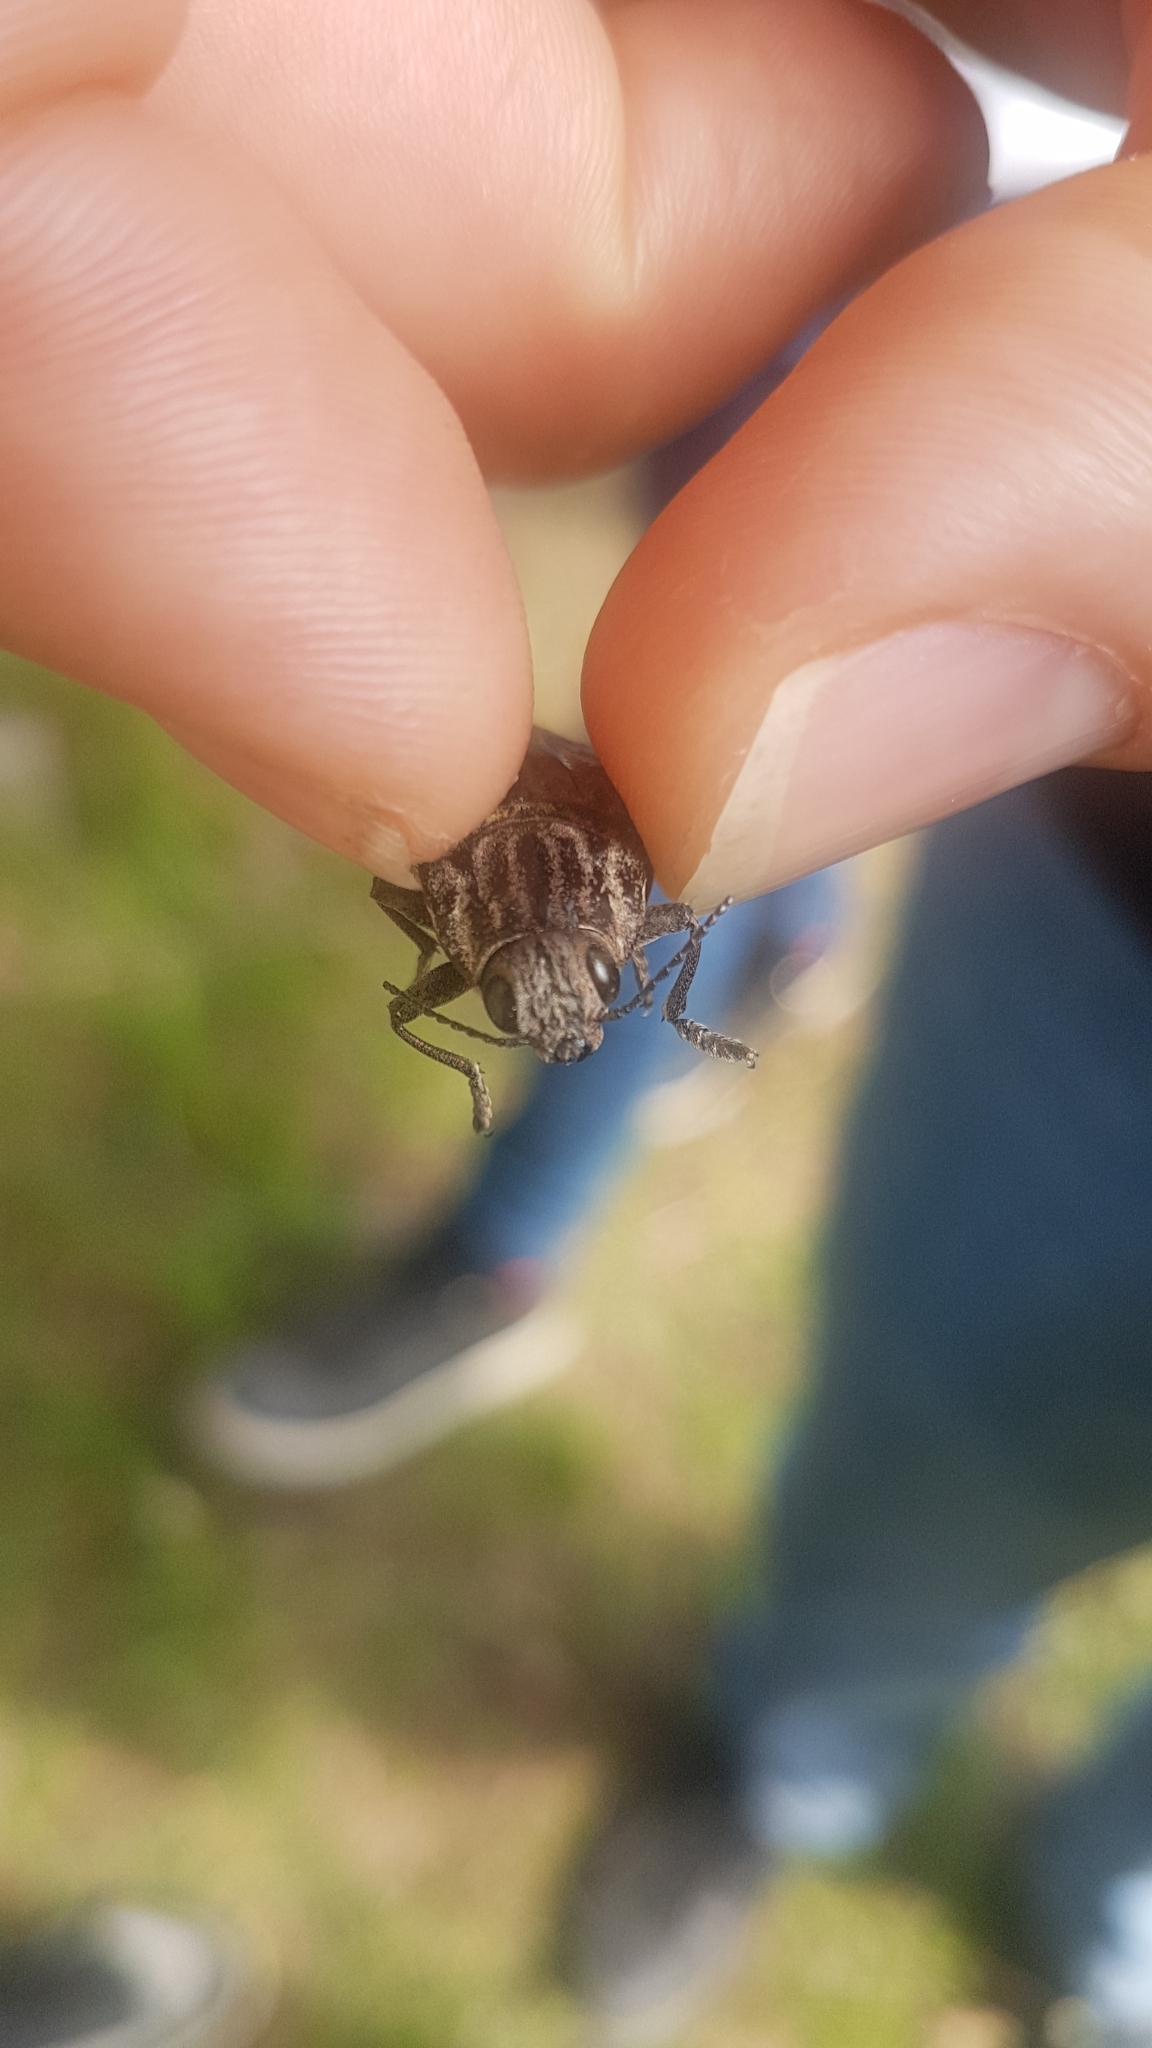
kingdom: Animalia
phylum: Arthropoda
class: Insecta
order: Coleoptera
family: Buprestidae
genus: Chalcophora
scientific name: Chalcophora mariana
